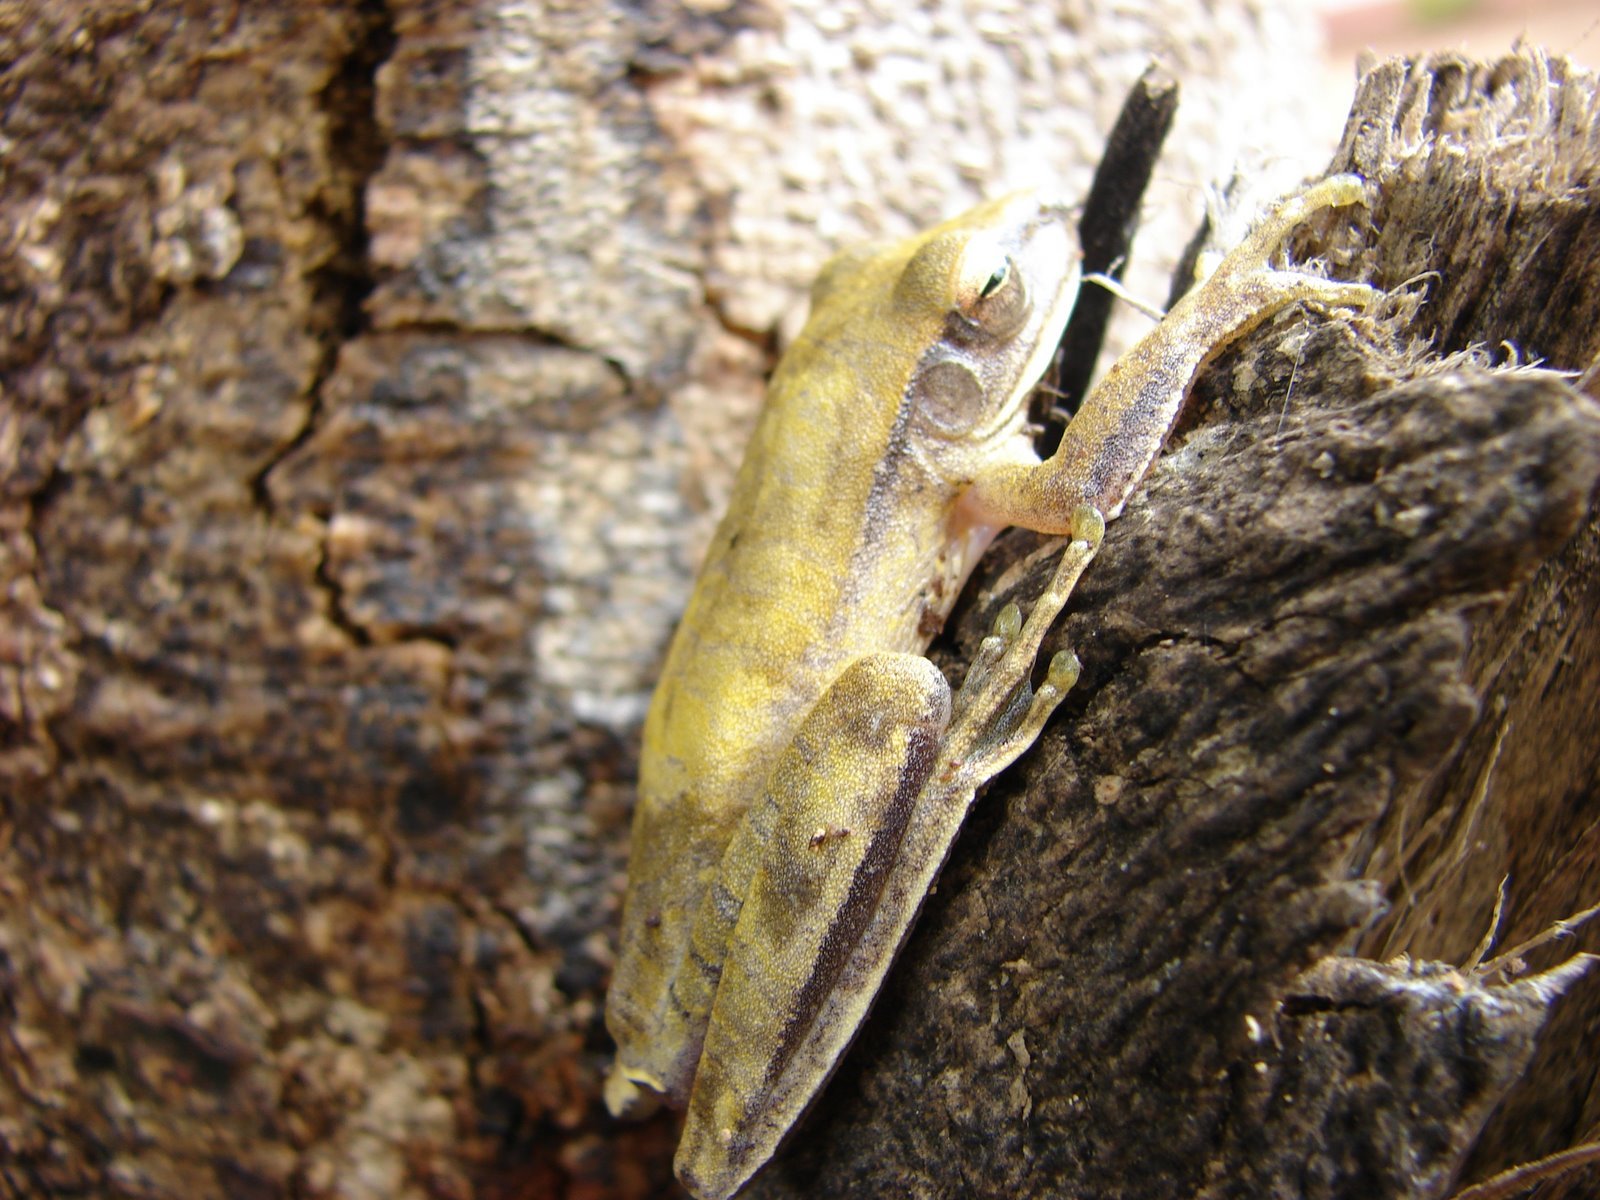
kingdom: Animalia
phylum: Chordata
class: Amphibia
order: Anura
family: Hylidae
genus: Boana
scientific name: Boana raniceps
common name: Chaco treefrog
